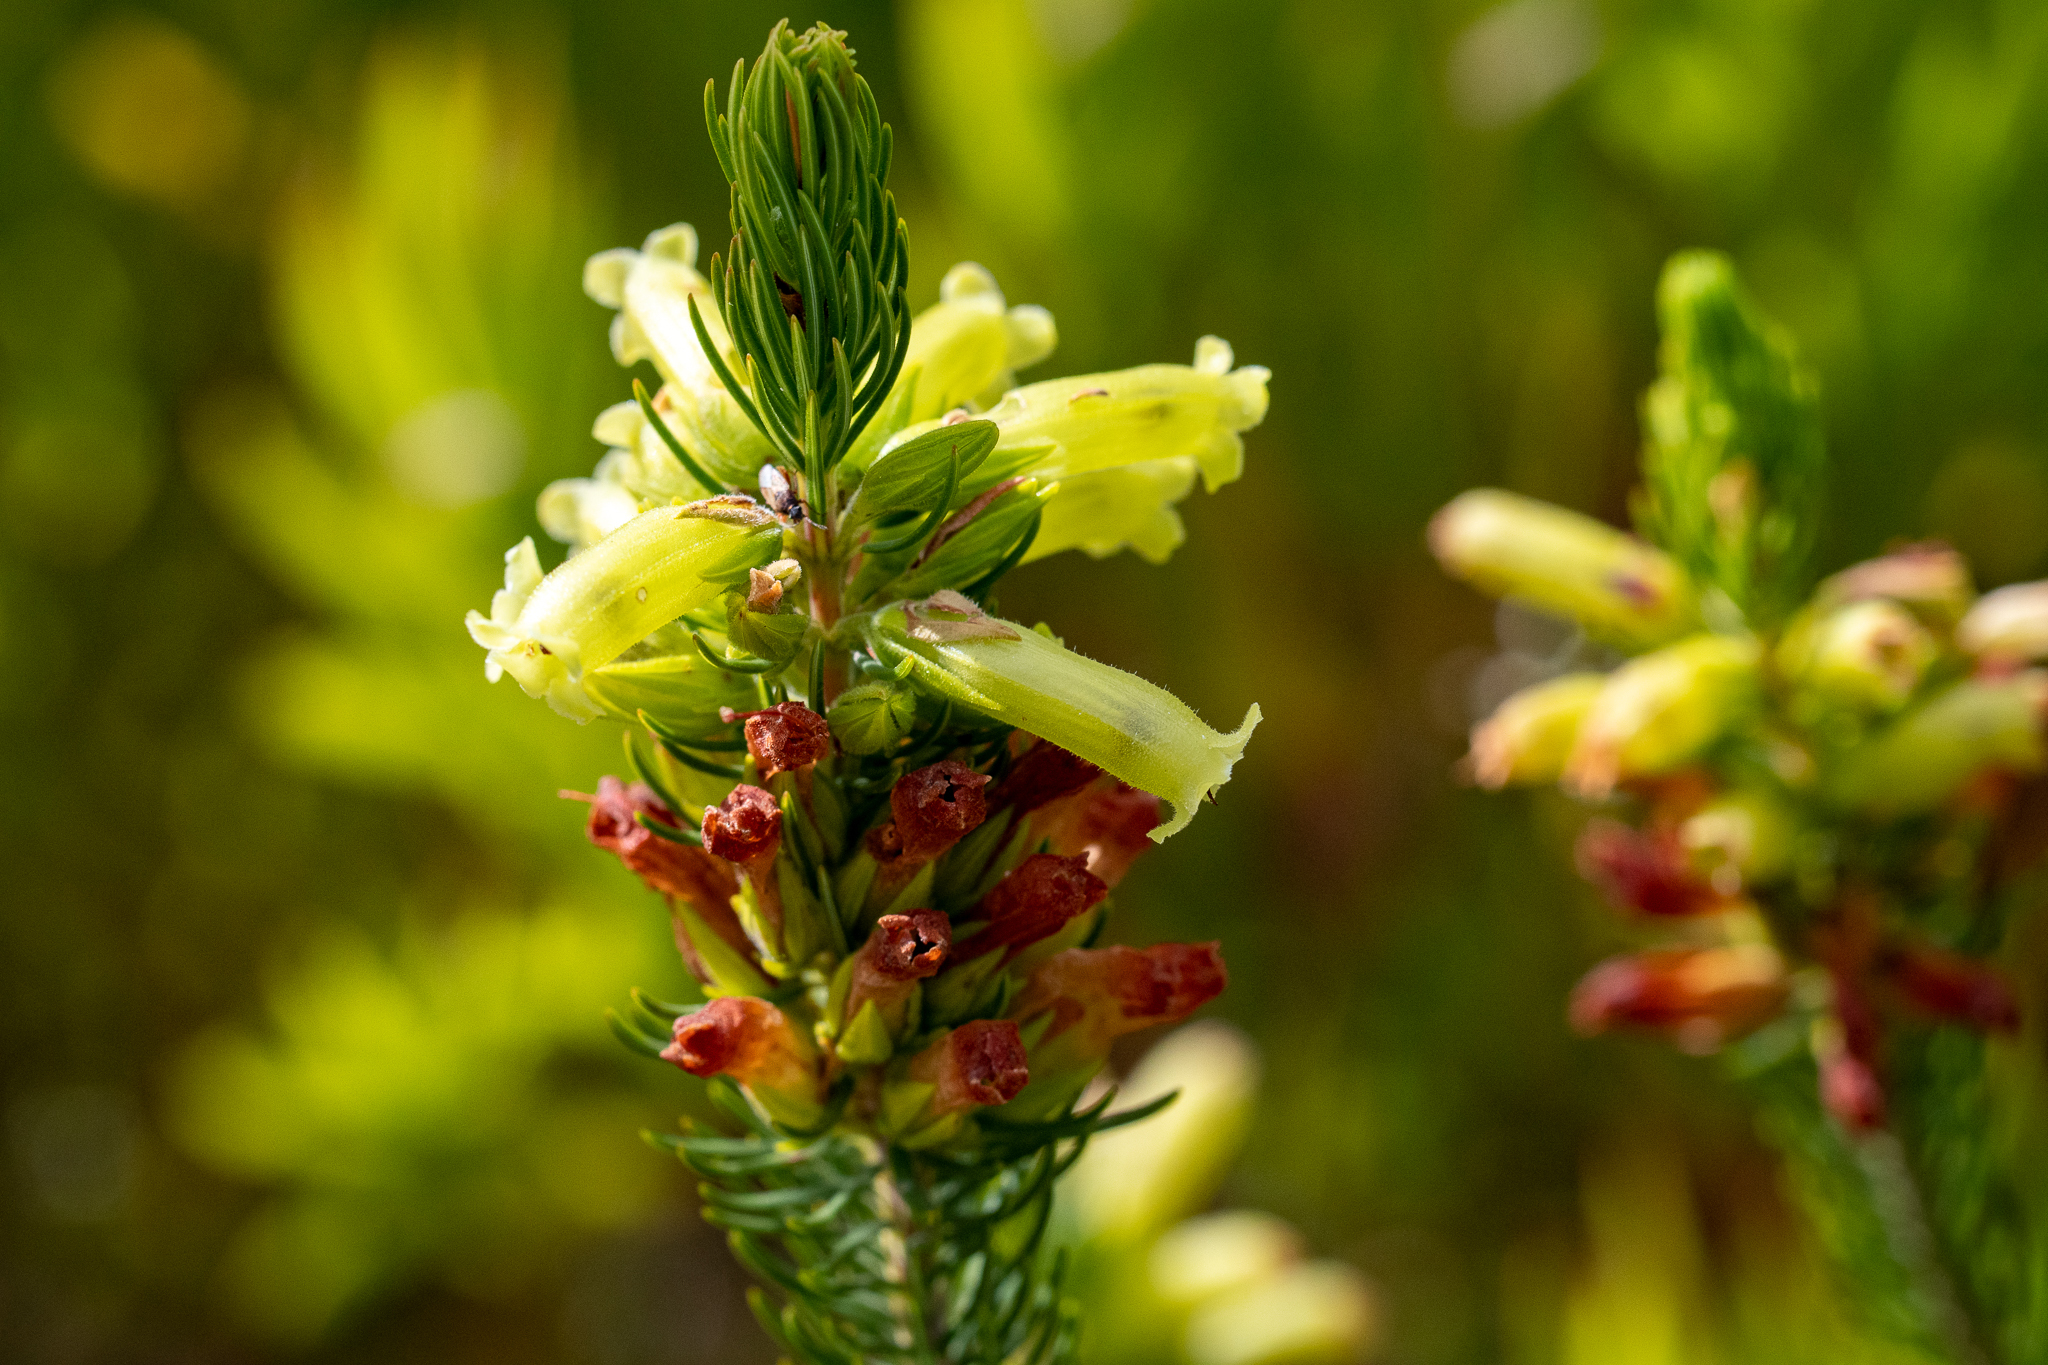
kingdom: Plantae
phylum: Tracheophyta
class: Magnoliopsida
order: Ericales
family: Ericaceae
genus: Erica
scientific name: Erica viscaria
